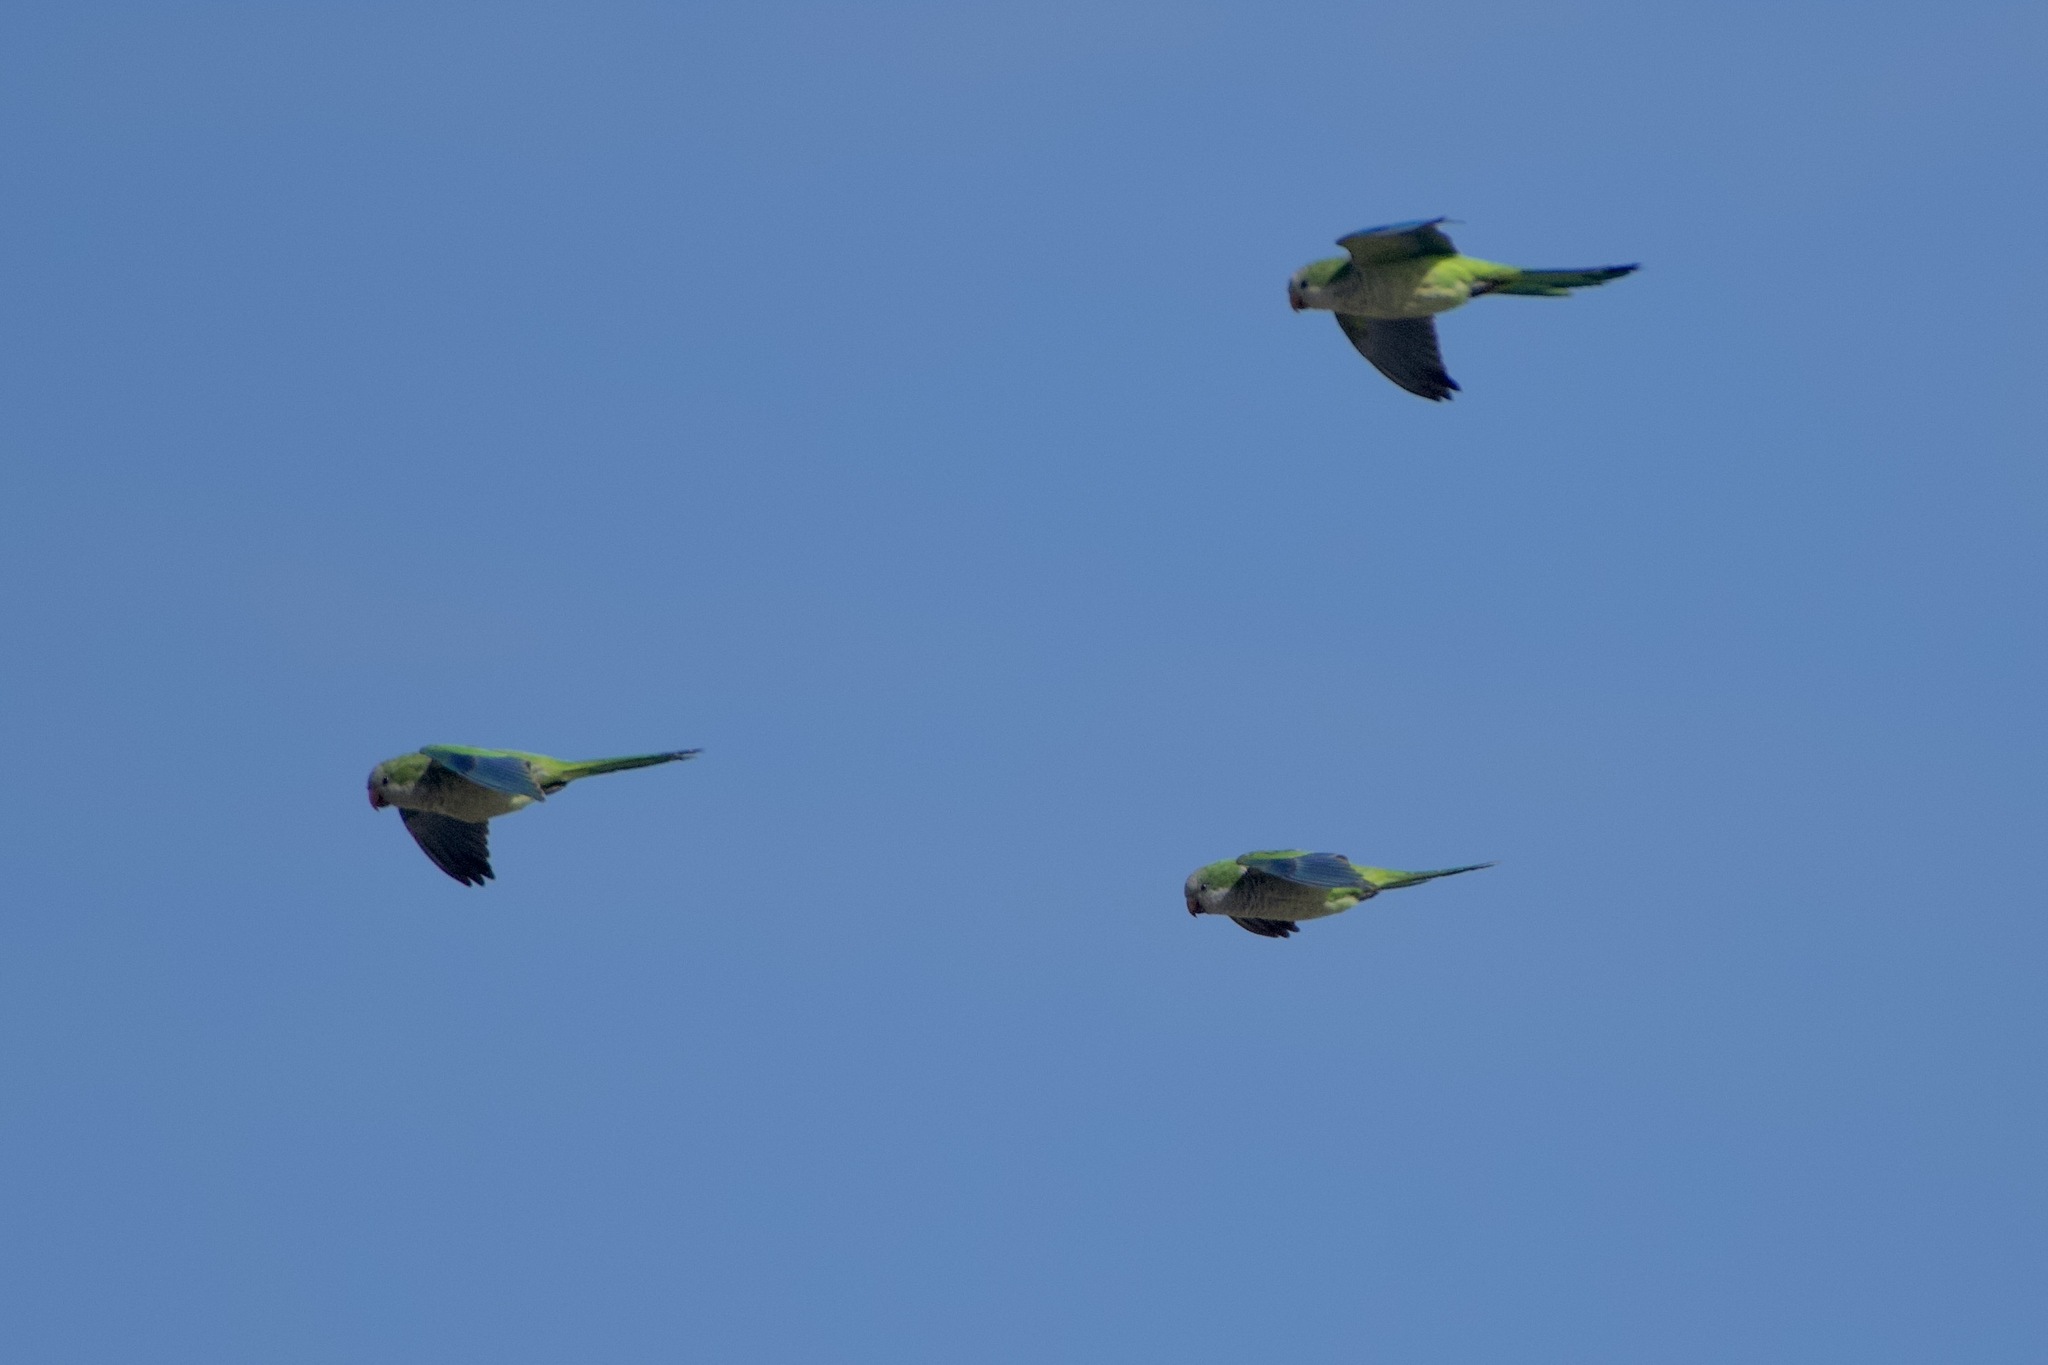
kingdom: Animalia
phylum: Chordata
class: Aves
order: Psittaciformes
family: Psittacidae
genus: Myiopsitta
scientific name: Myiopsitta monachus
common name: Monk parakeet
